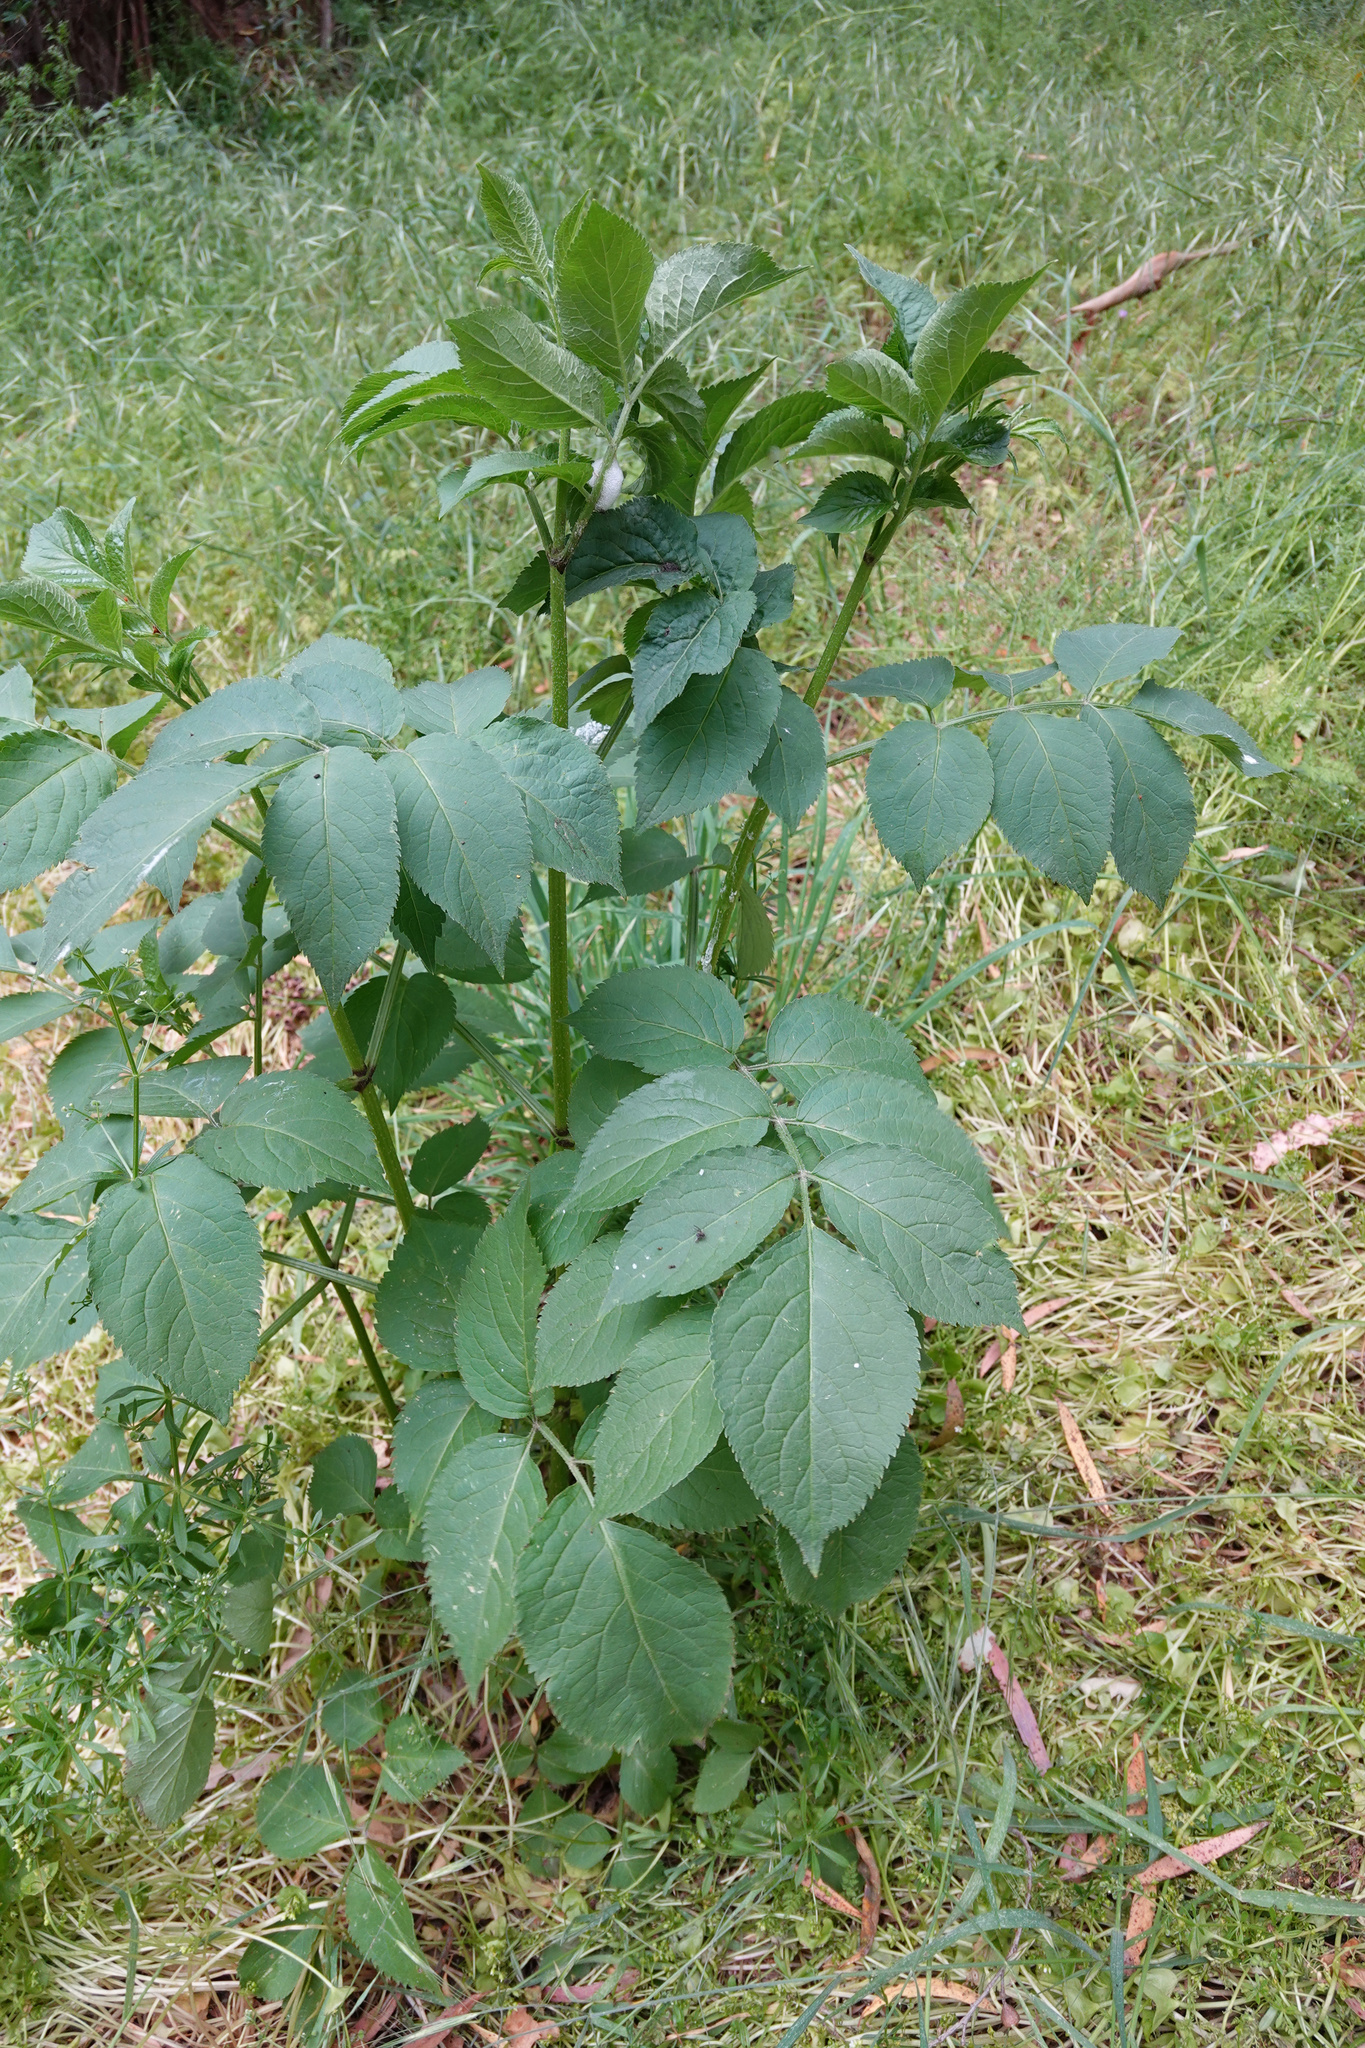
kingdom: Plantae
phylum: Tracheophyta
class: Magnoliopsida
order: Dipsacales
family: Viburnaceae
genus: Sambucus
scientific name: Sambucus nigra
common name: Elder
